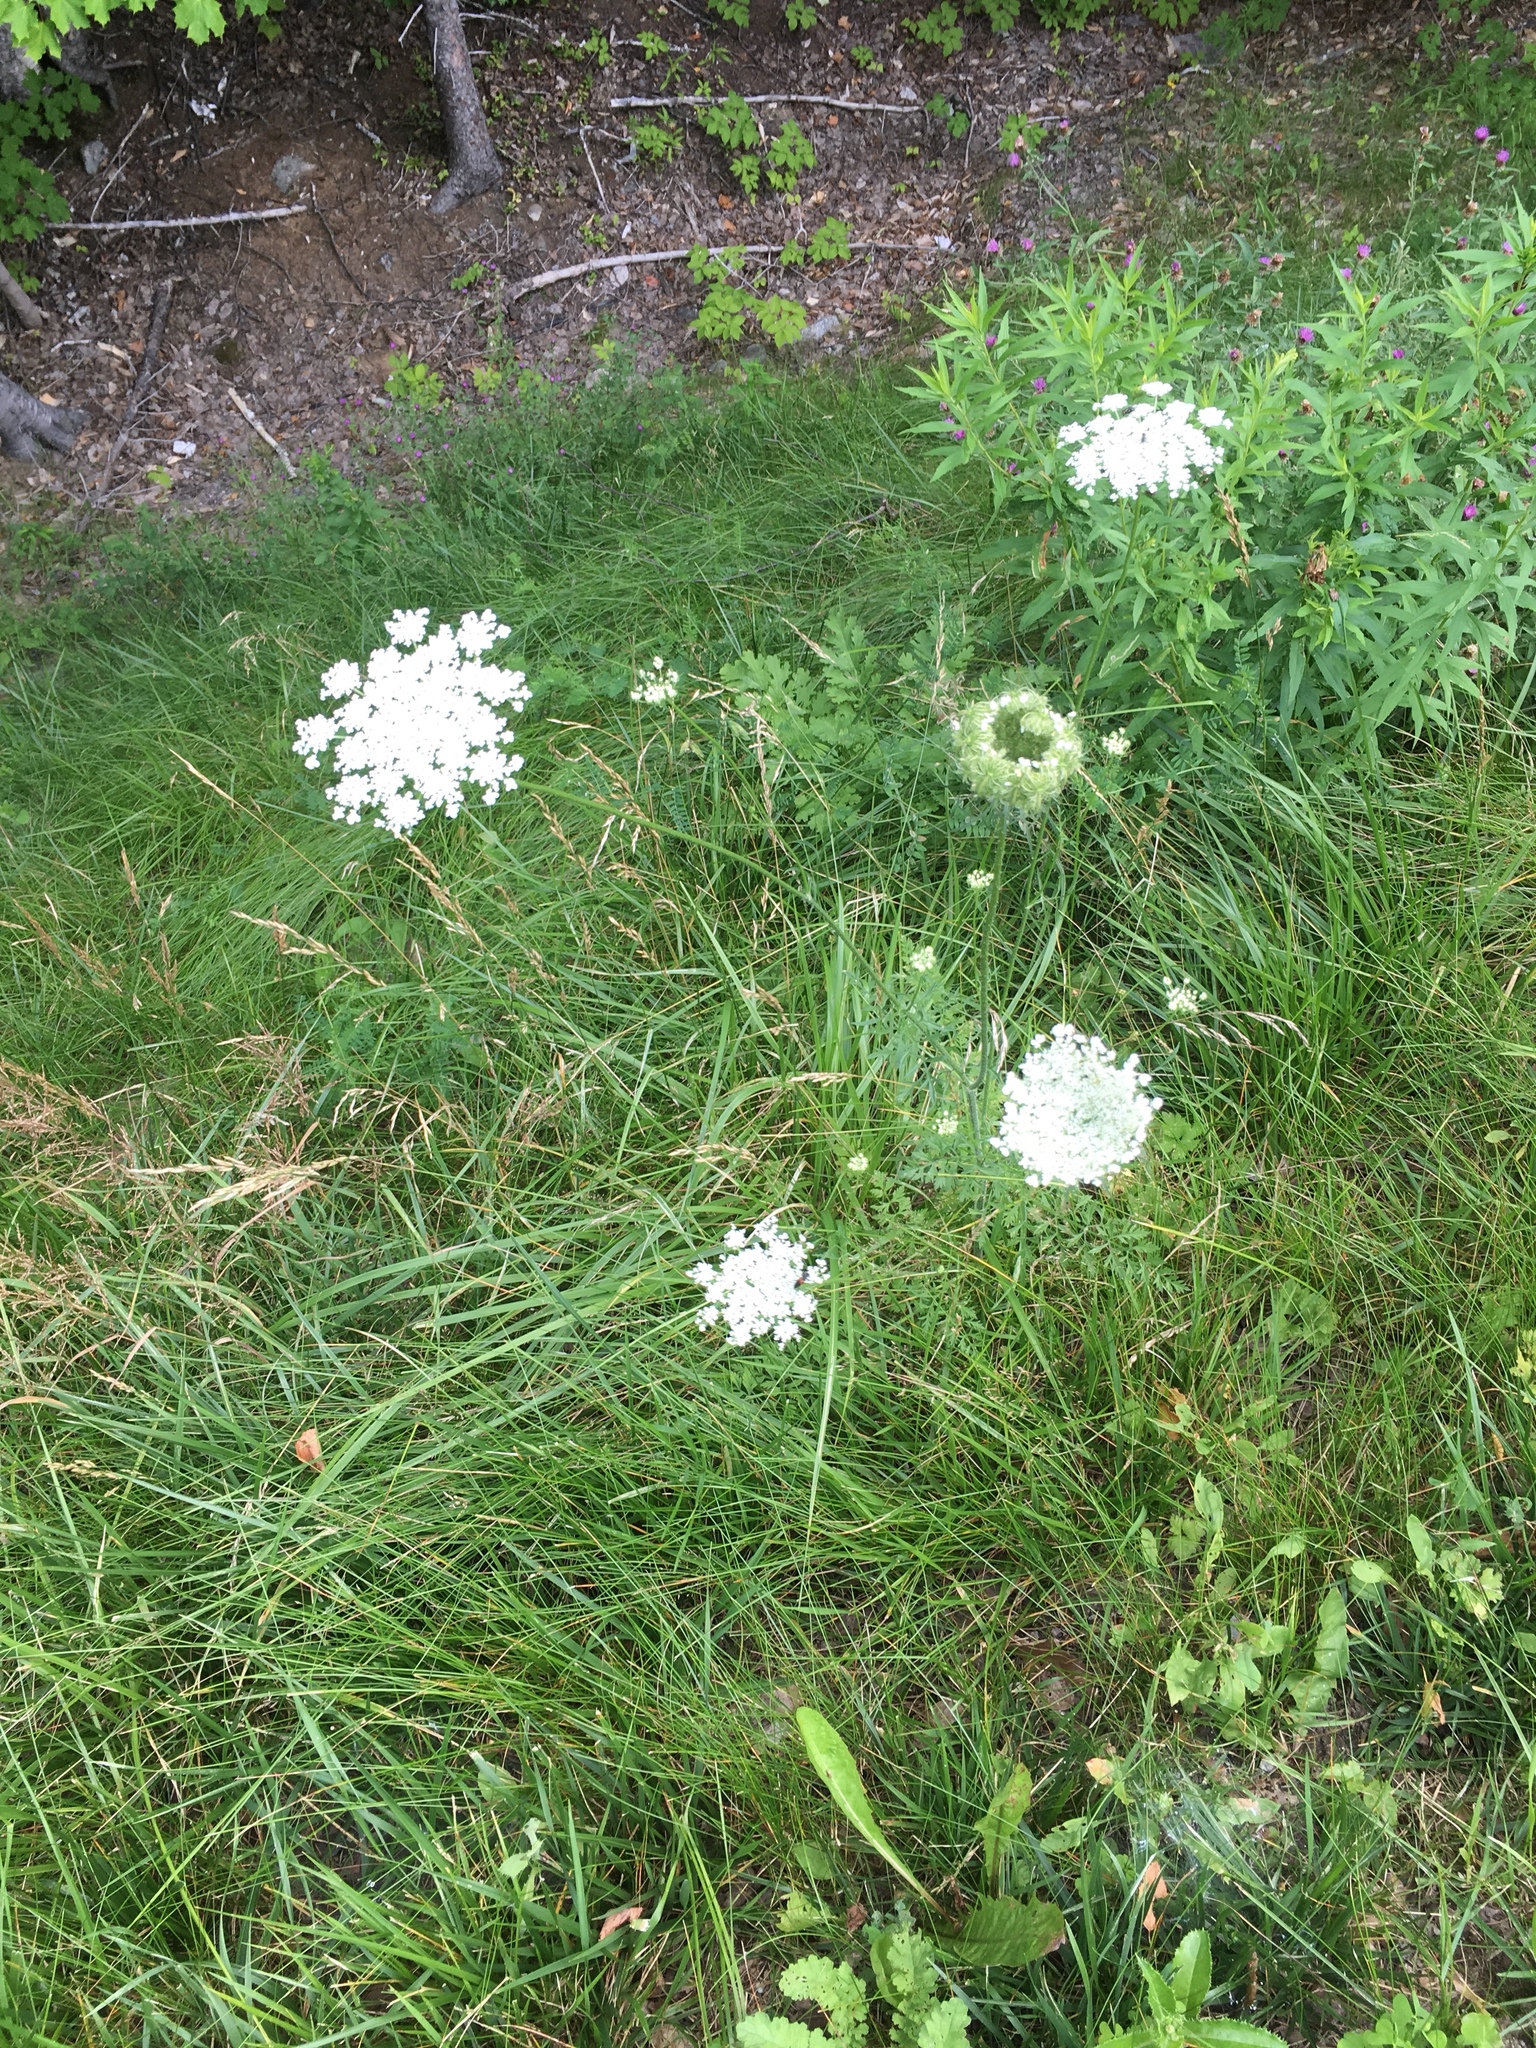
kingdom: Plantae
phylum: Tracheophyta
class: Magnoliopsida
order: Apiales
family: Apiaceae
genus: Daucus
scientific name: Daucus carota
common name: Wild carrot
